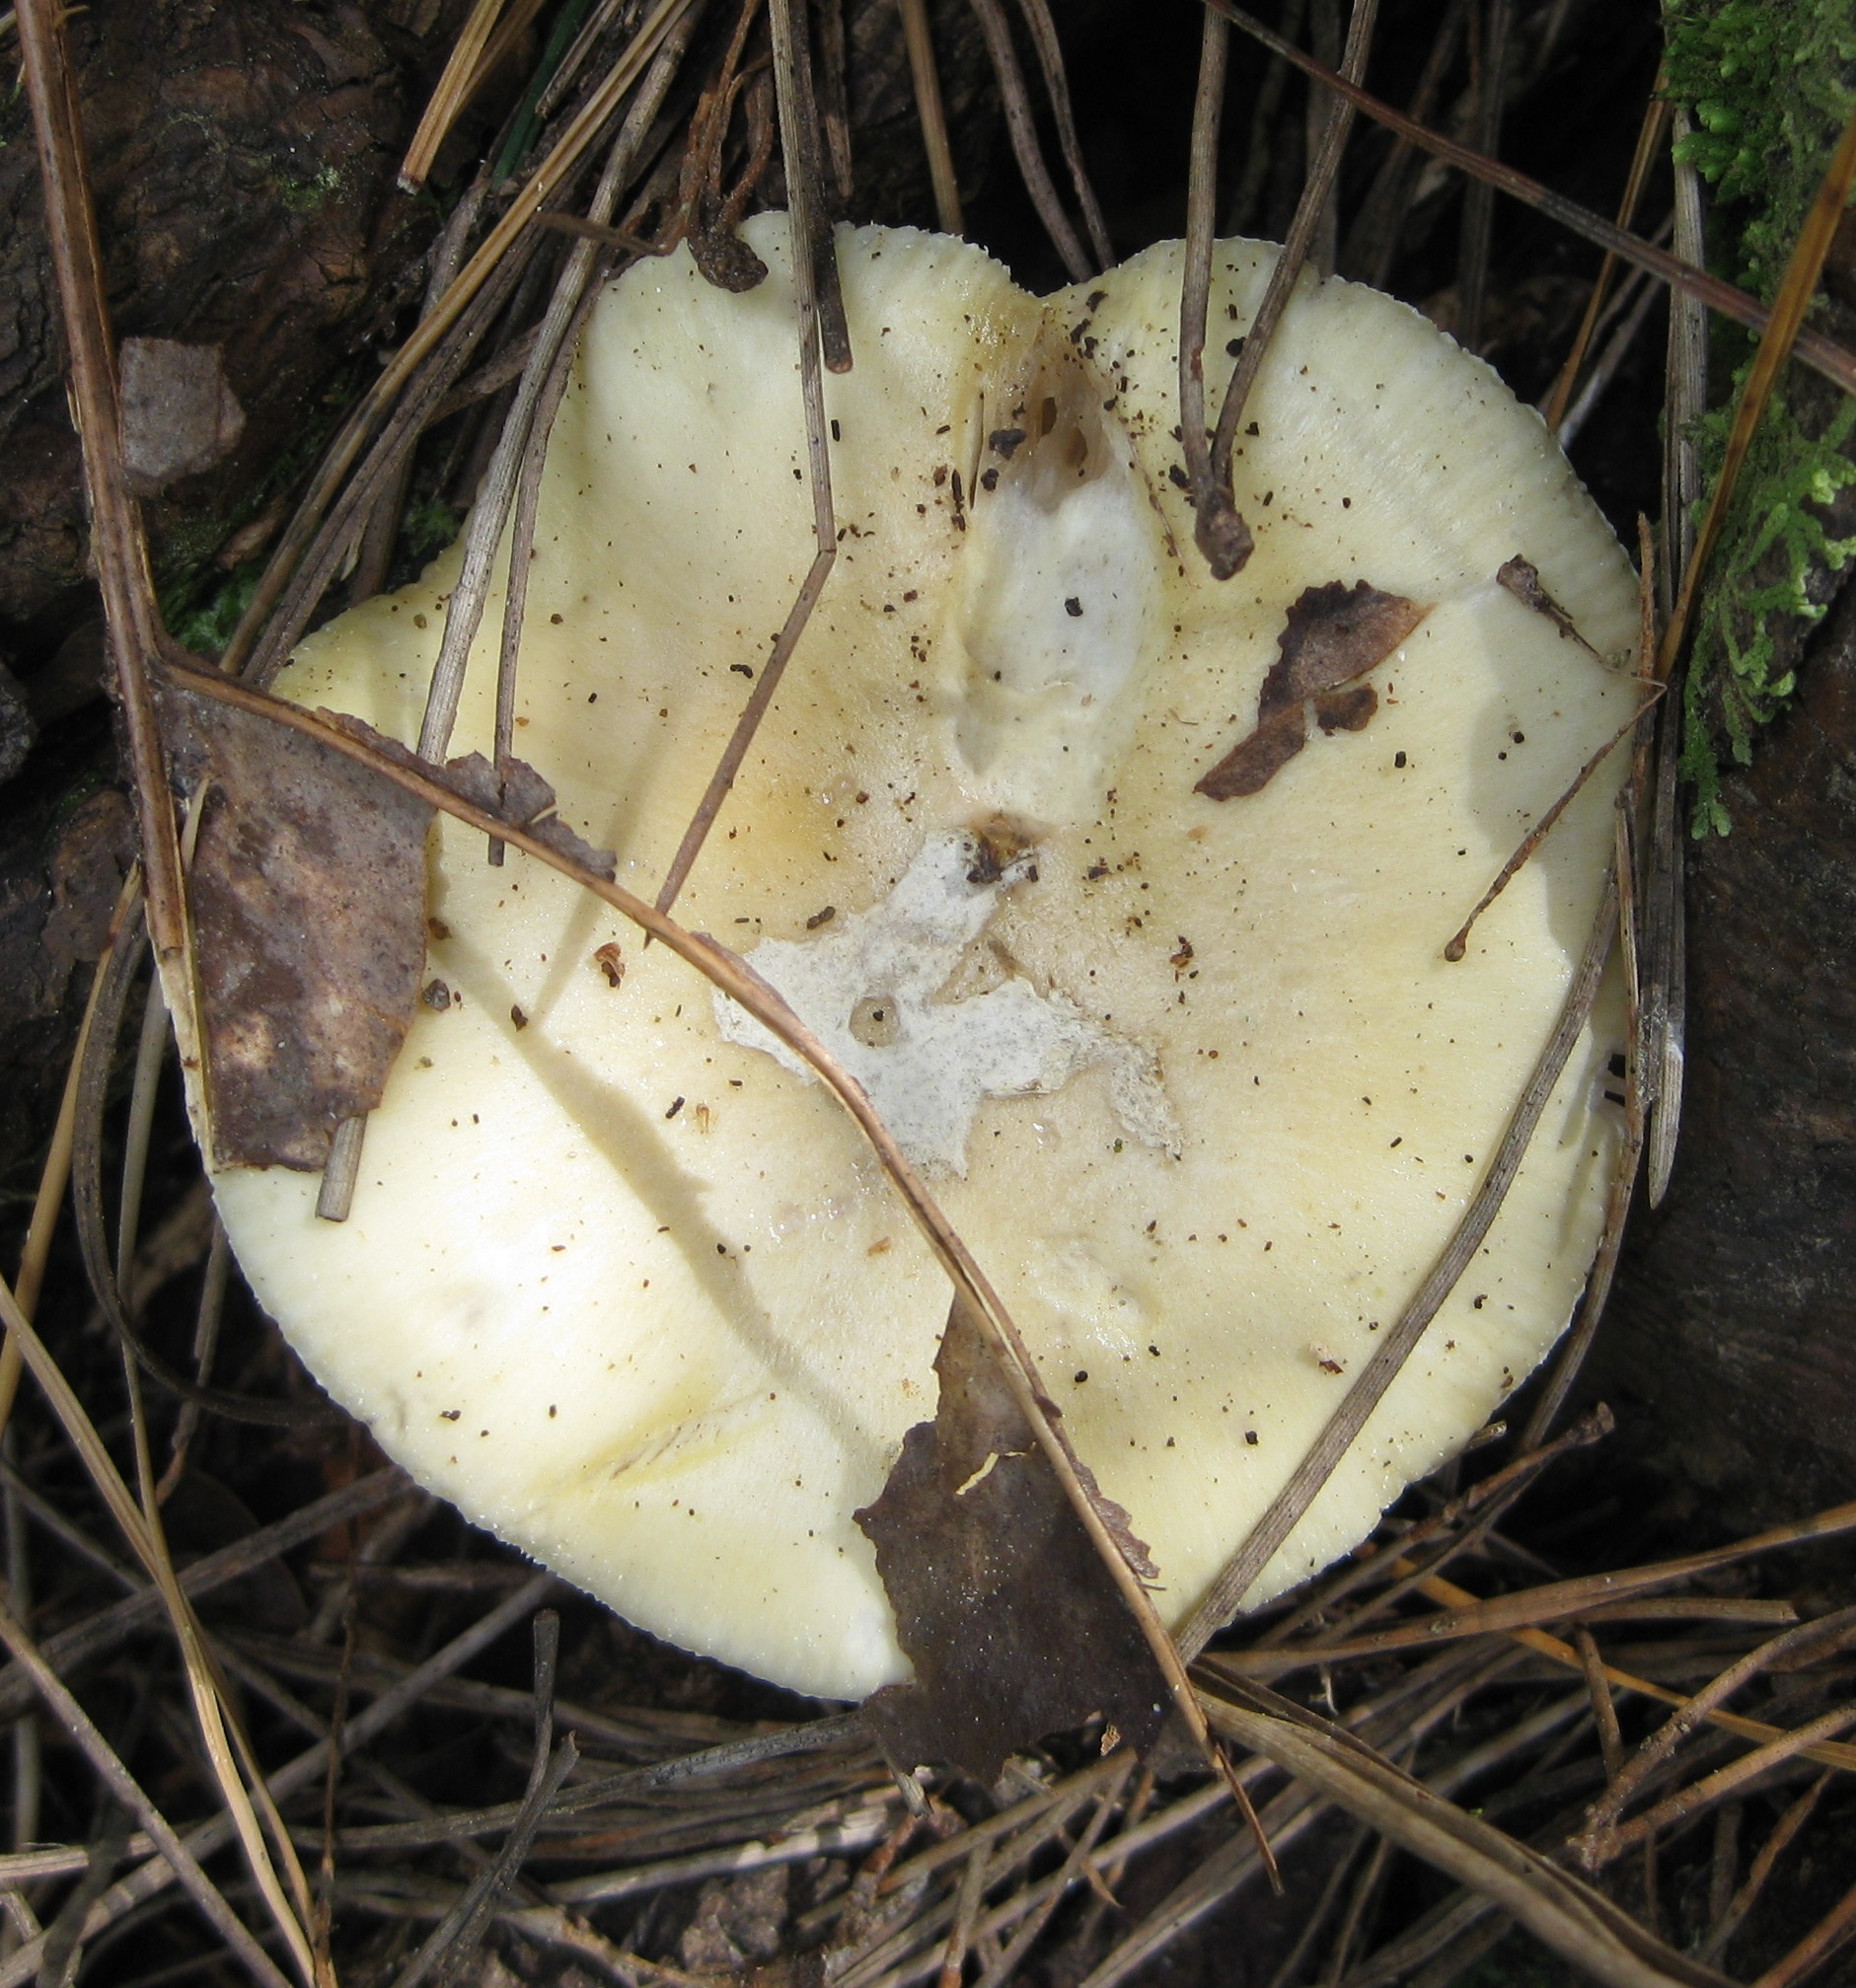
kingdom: Fungi
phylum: Basidiomycota
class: Agaricomycetes
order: Agaricales
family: Amanitaceae
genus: Amanita
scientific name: Amanita gemmata
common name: Jewelled amanita
